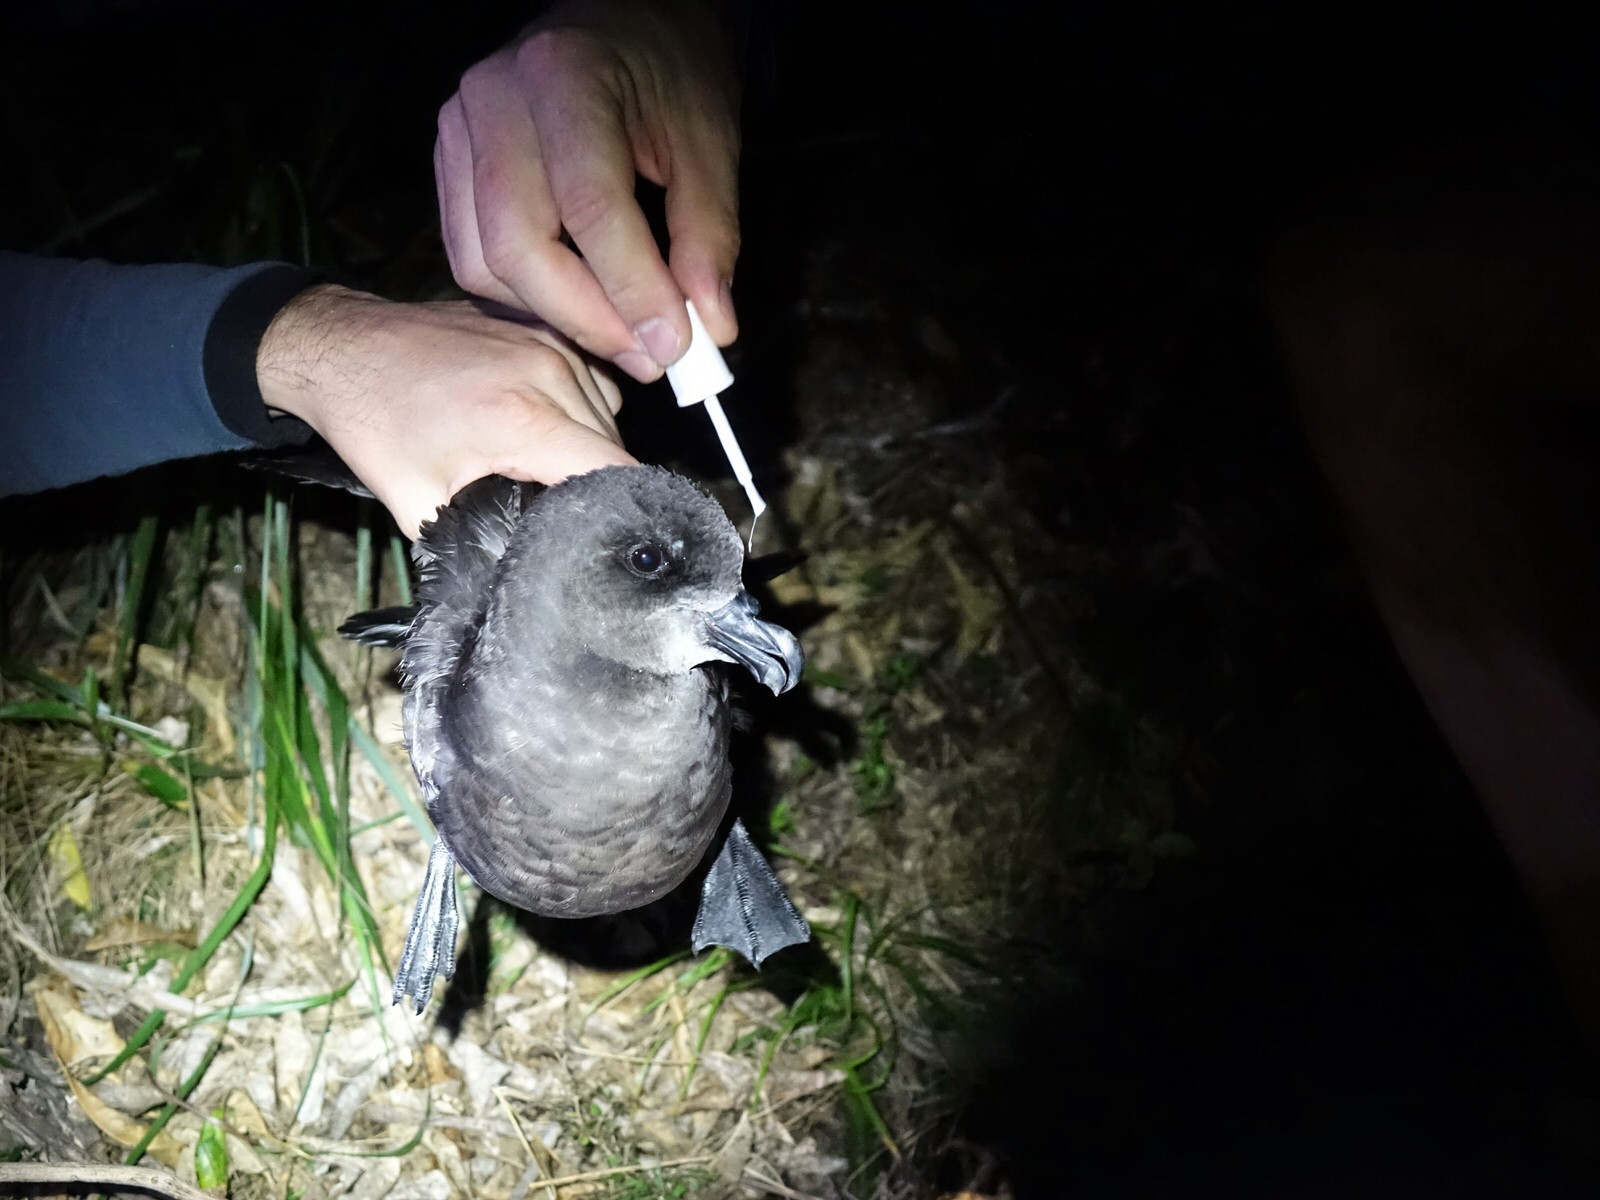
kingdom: Animalia
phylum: Chordata
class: Aves
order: Procellariiformes
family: Procellariidae
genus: Pterodroma
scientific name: Pterodroma macroptera
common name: Great-winged petrel
